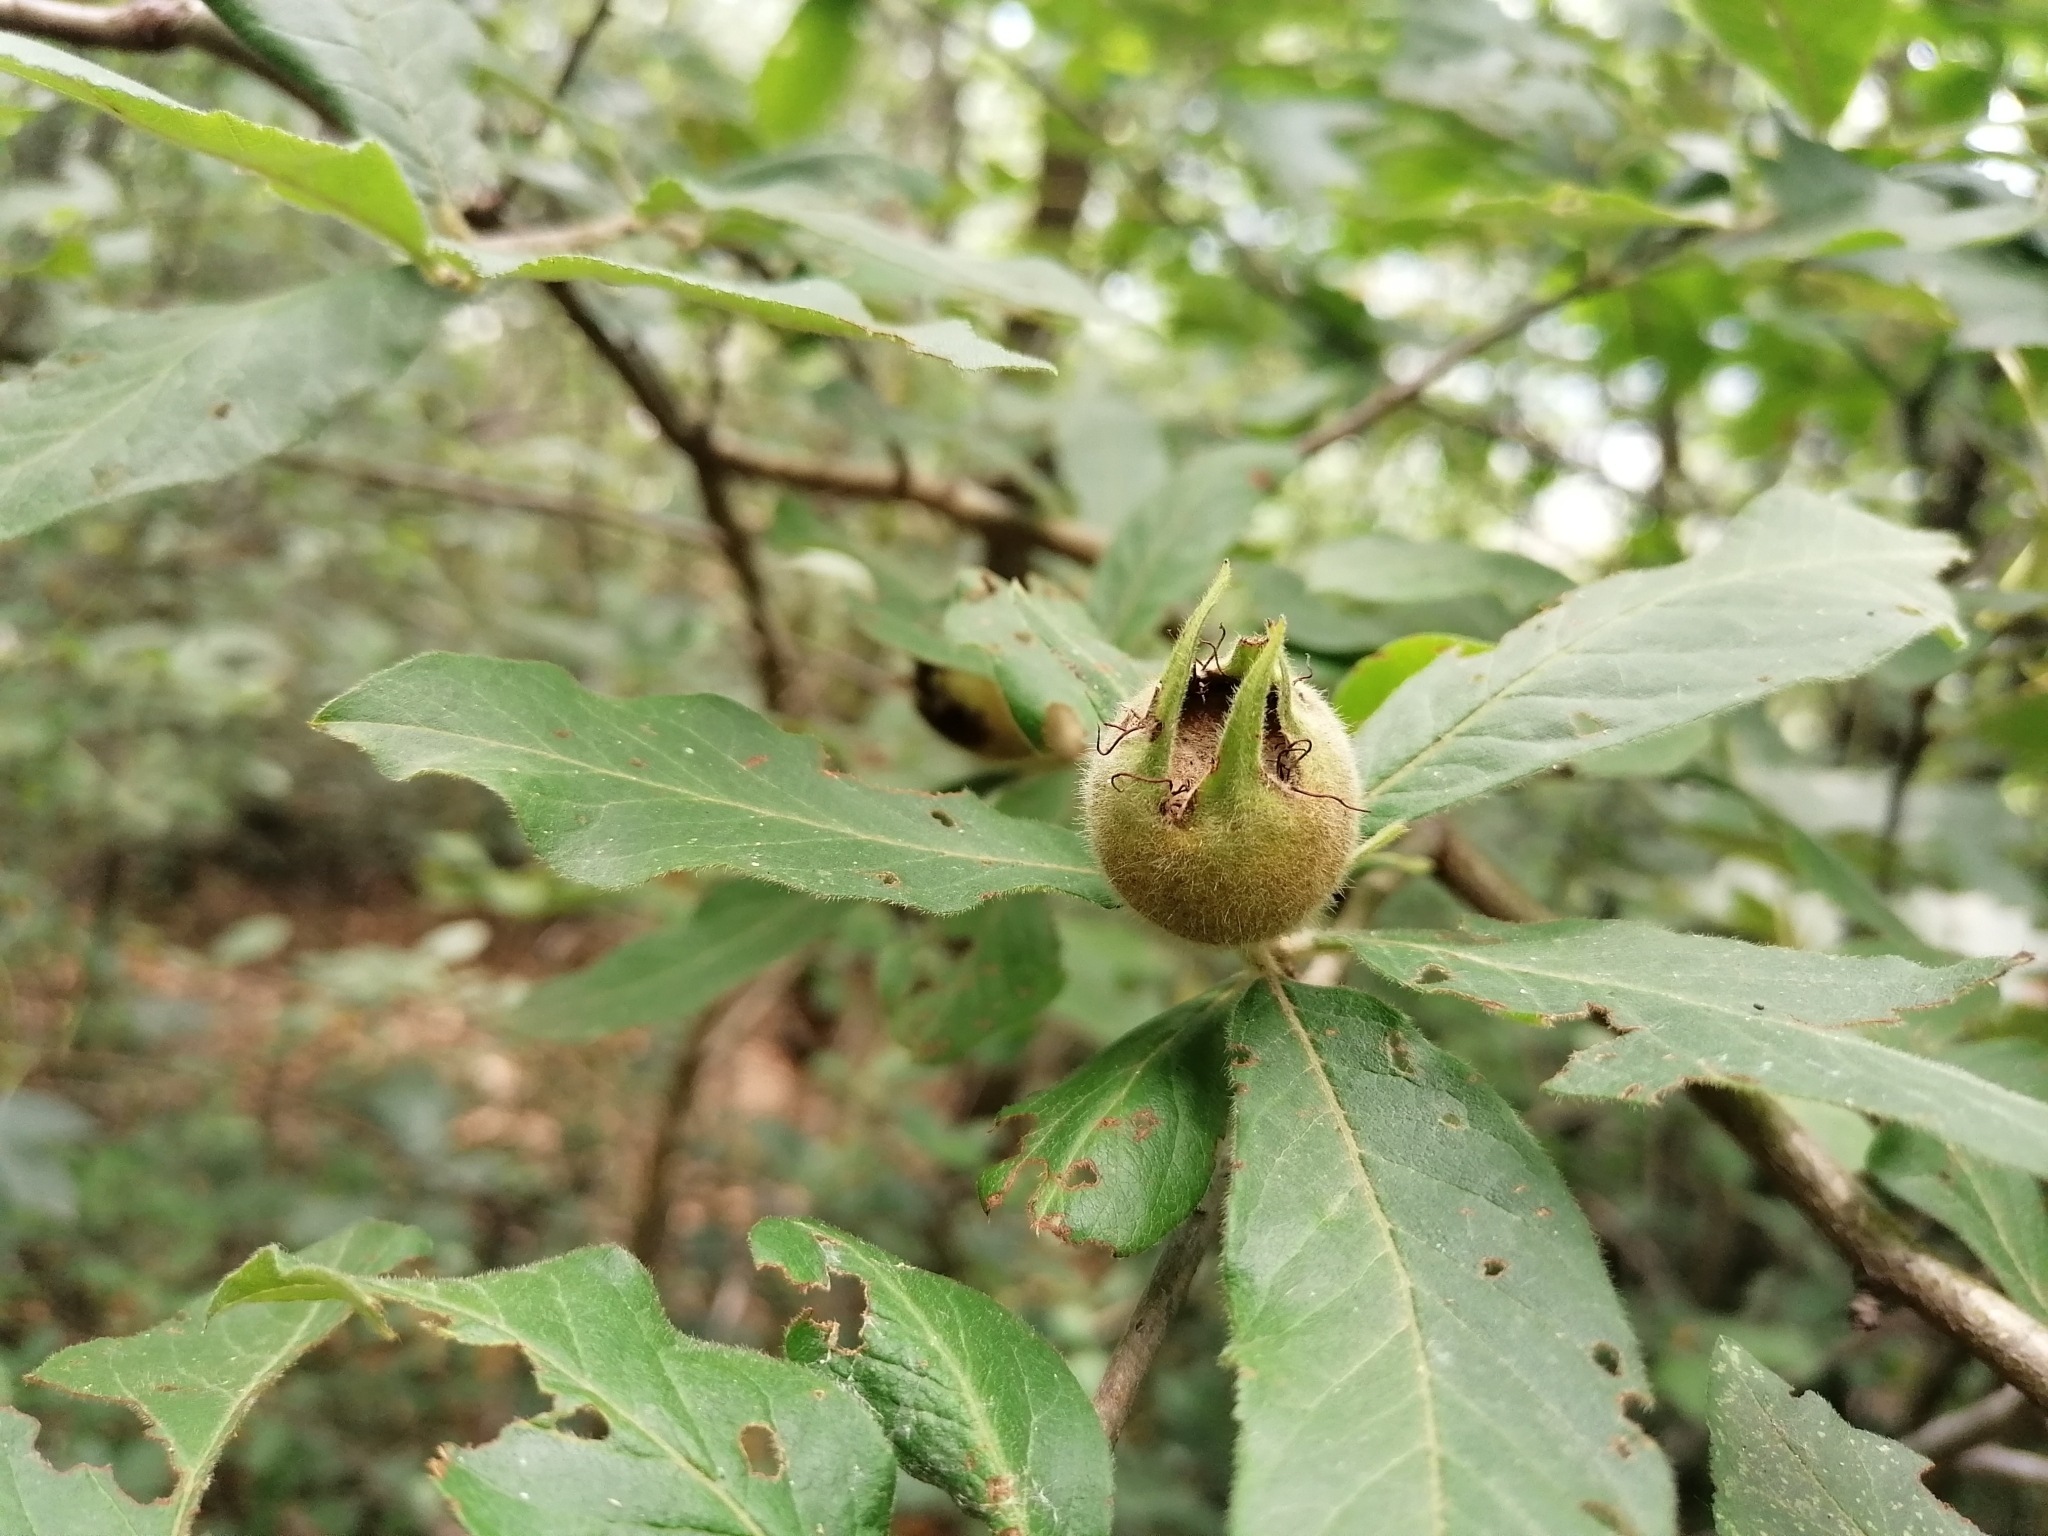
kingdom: Plantae
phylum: Tracheophyta
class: Magnoliopsida
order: Rosales
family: Rosaceae
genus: Mespilus
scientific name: Mespilus germanica
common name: Medlar
